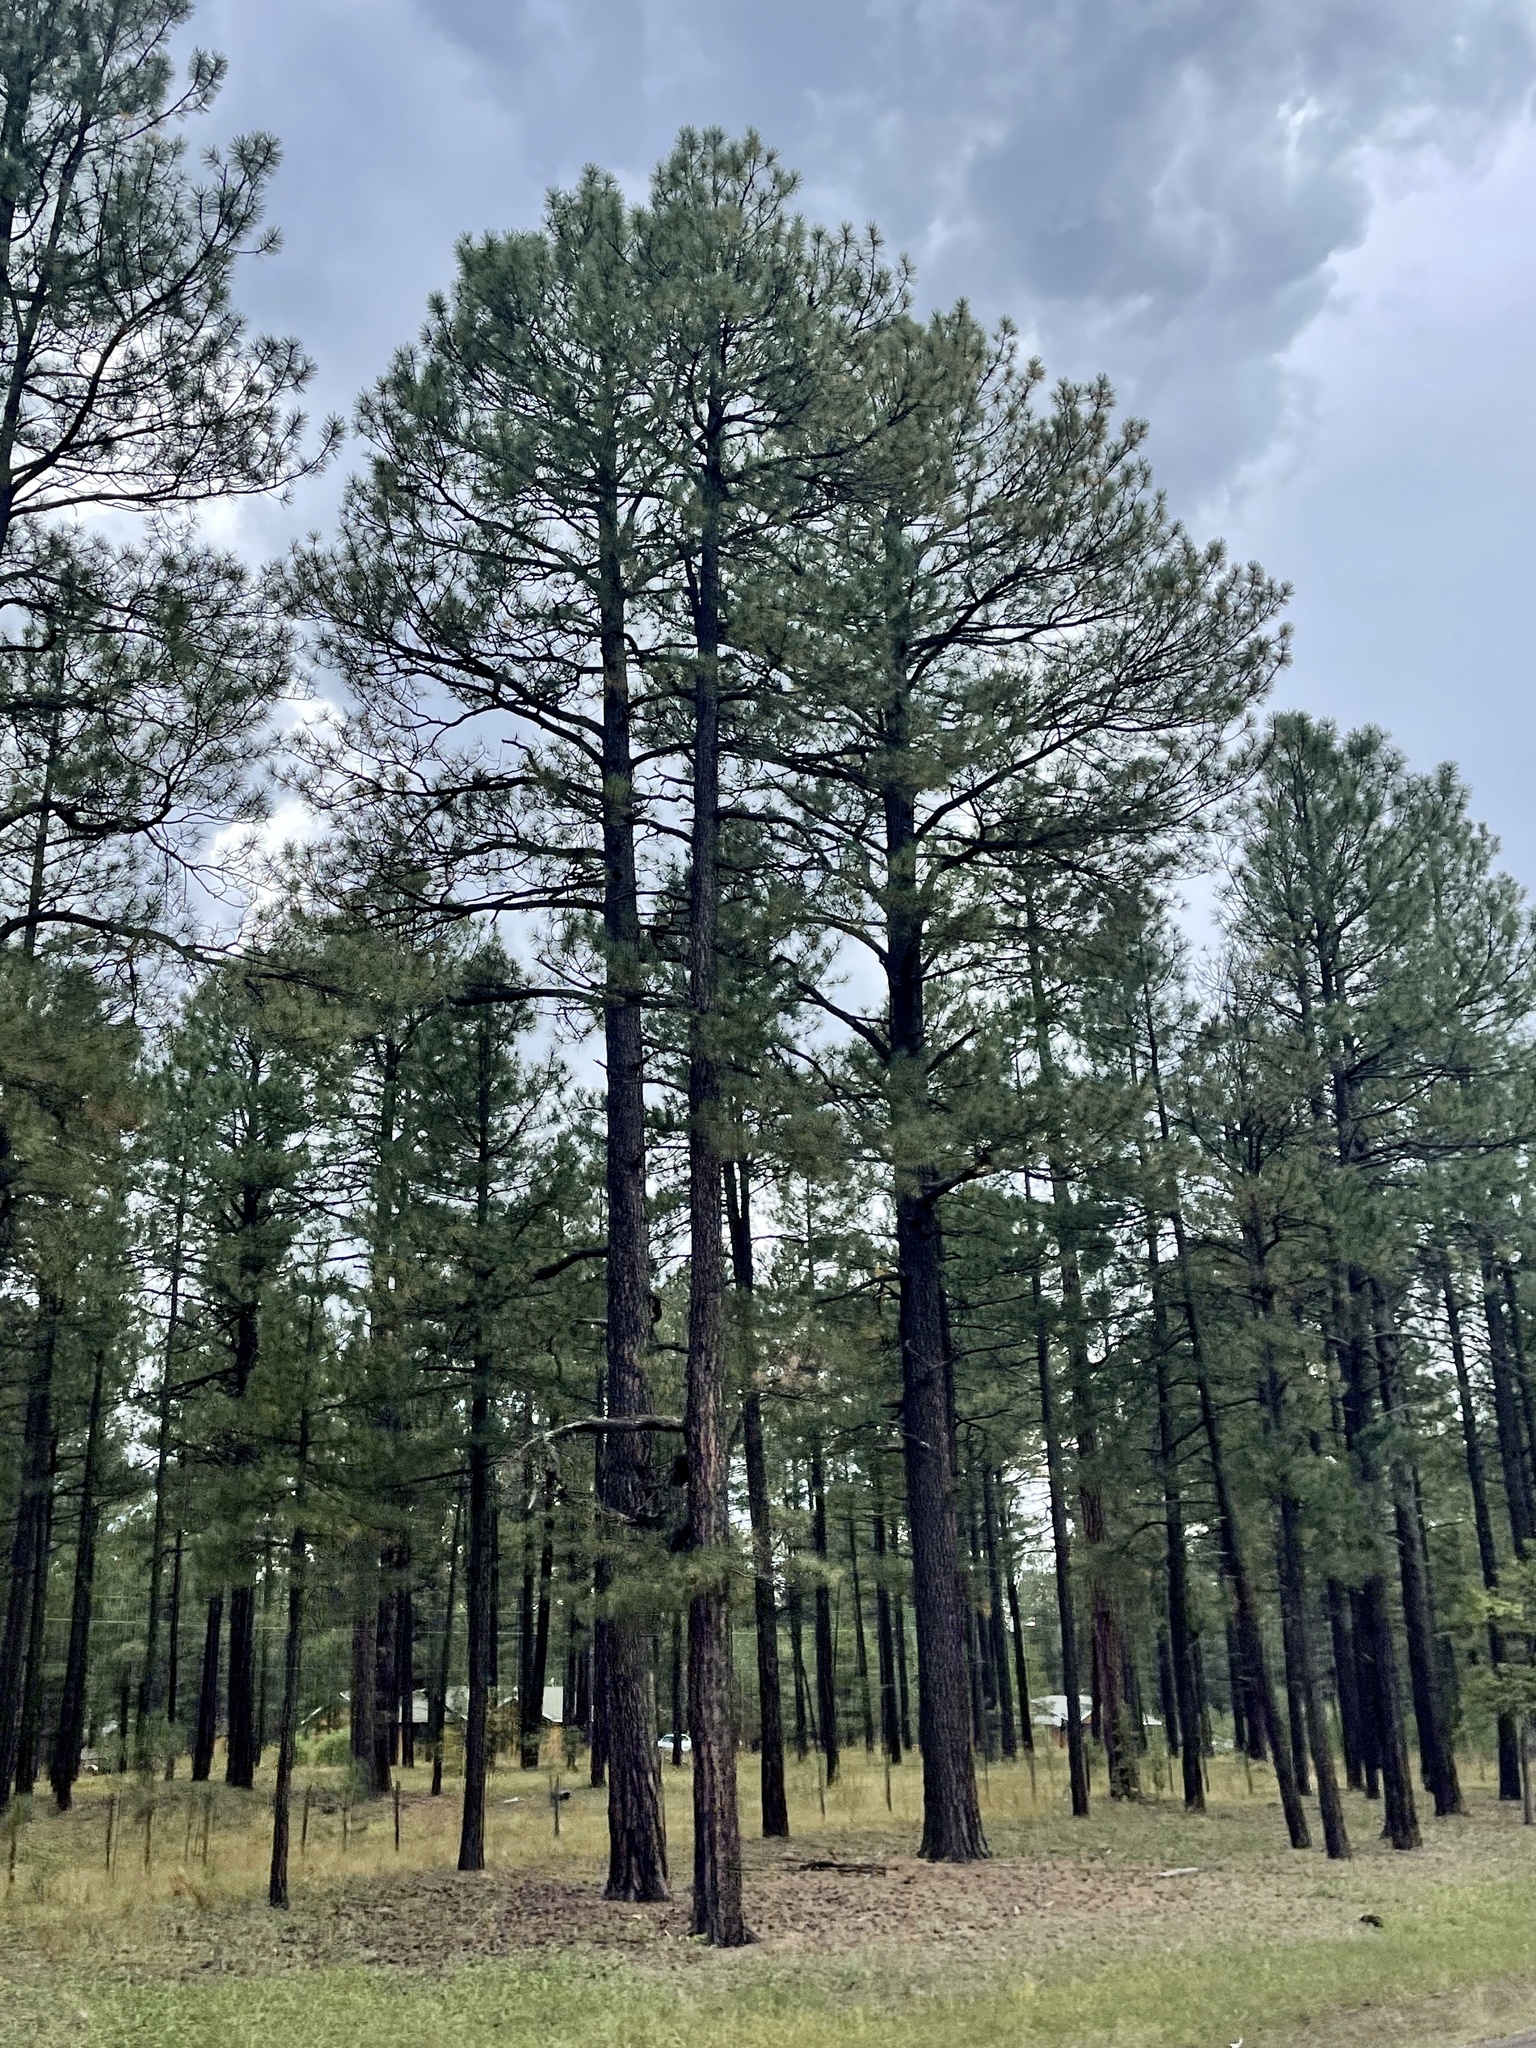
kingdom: Plantae
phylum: Tracheophyta
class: Pinopsida
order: Pinales
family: Pinaceae
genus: Pinus
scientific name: Pinus ponderosa
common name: Western yellow-pine
